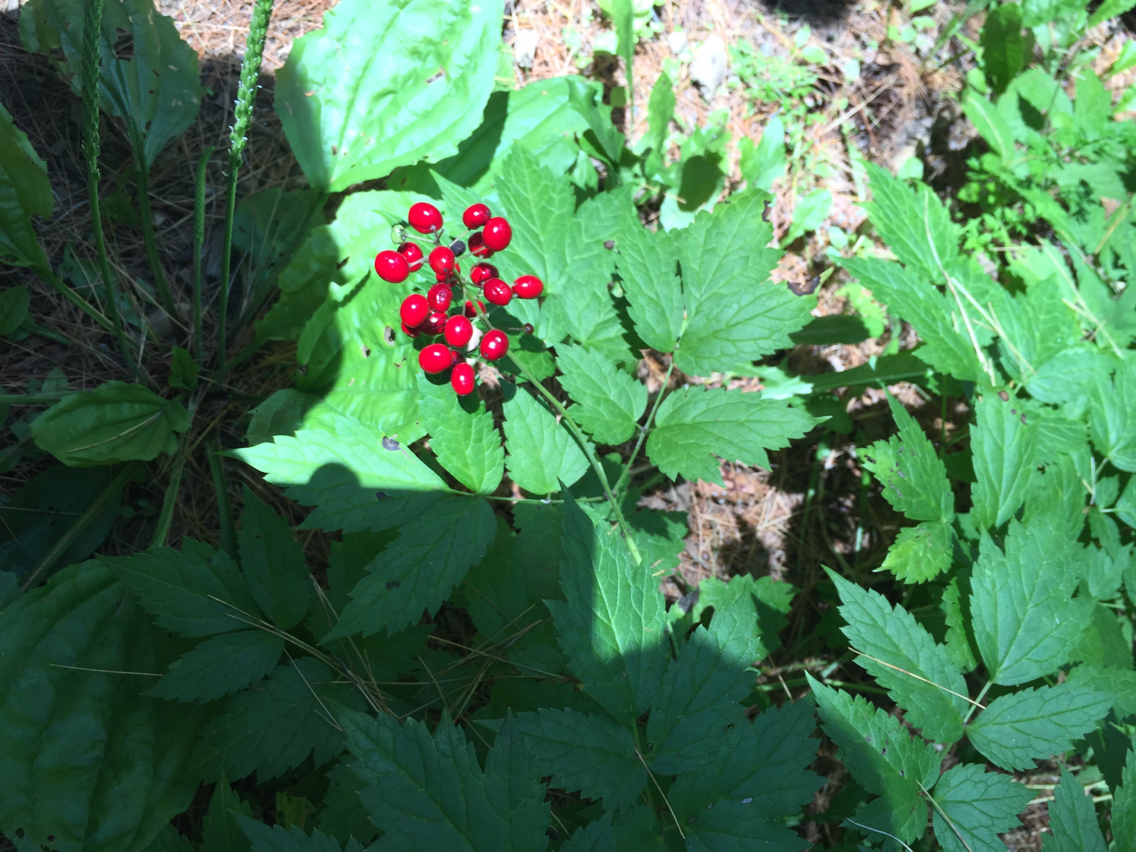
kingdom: Plantae
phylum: Tracheophyta
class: Magnoliopsida
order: Ranunculales
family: Ranunculaceae
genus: Actaea
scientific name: Actaea rubra
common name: Red baneberry
